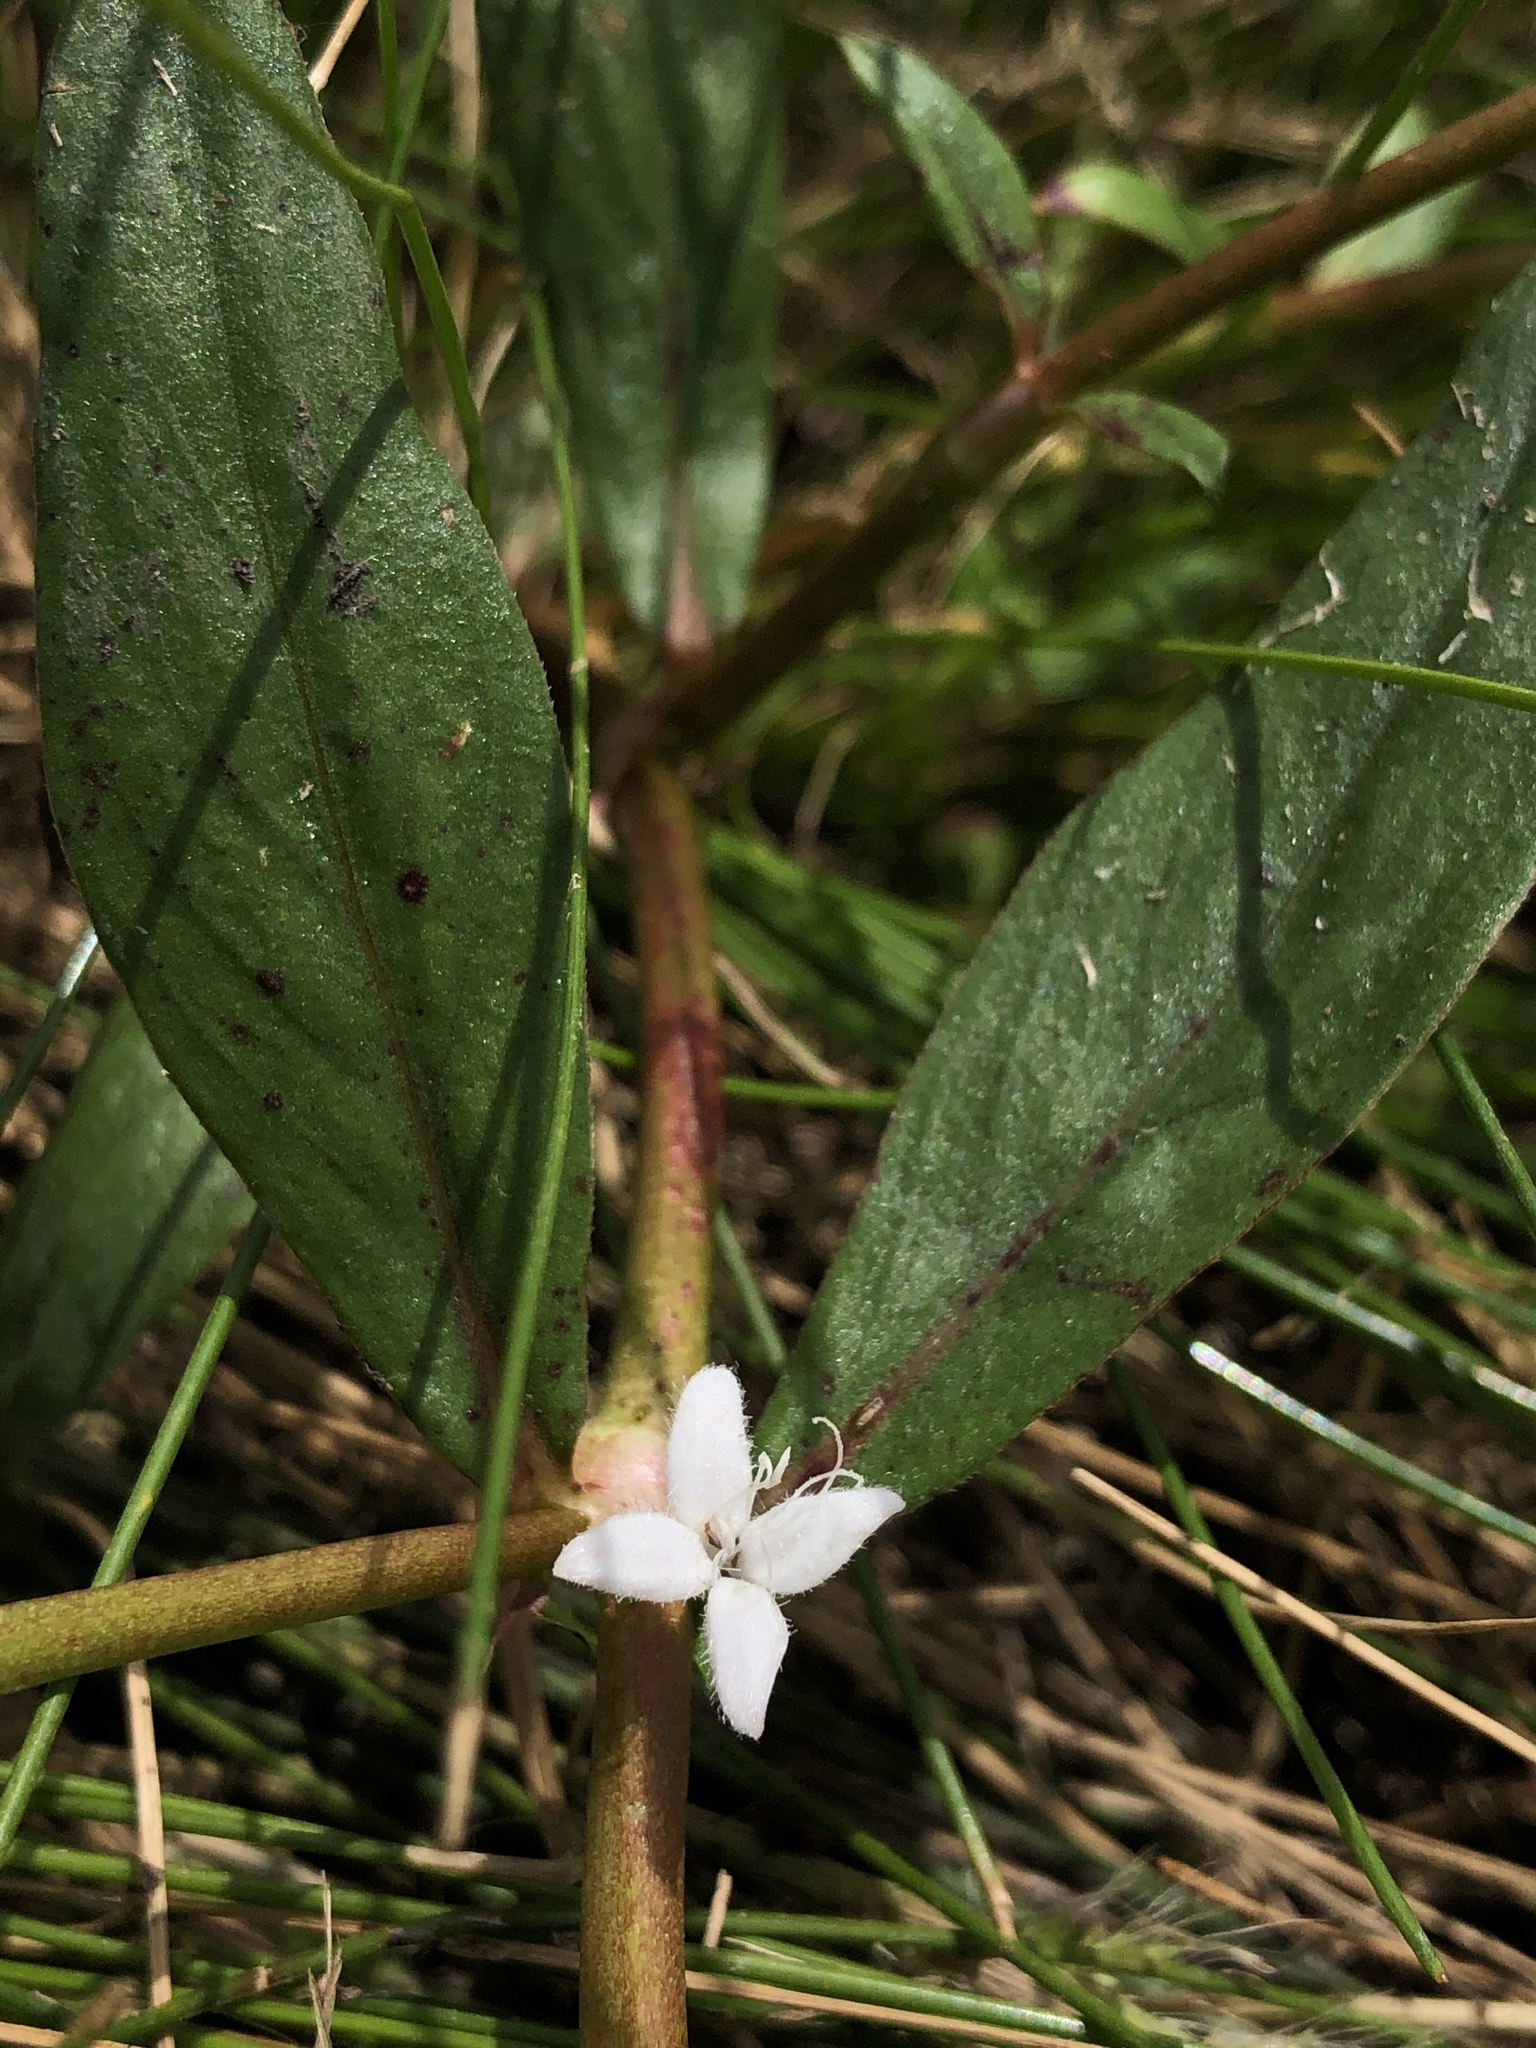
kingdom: Plantae
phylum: Tracheophyta
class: Magnoliopsida
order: Gentianales
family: Rubiaceae
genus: Diodia
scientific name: Diodia virginiana
